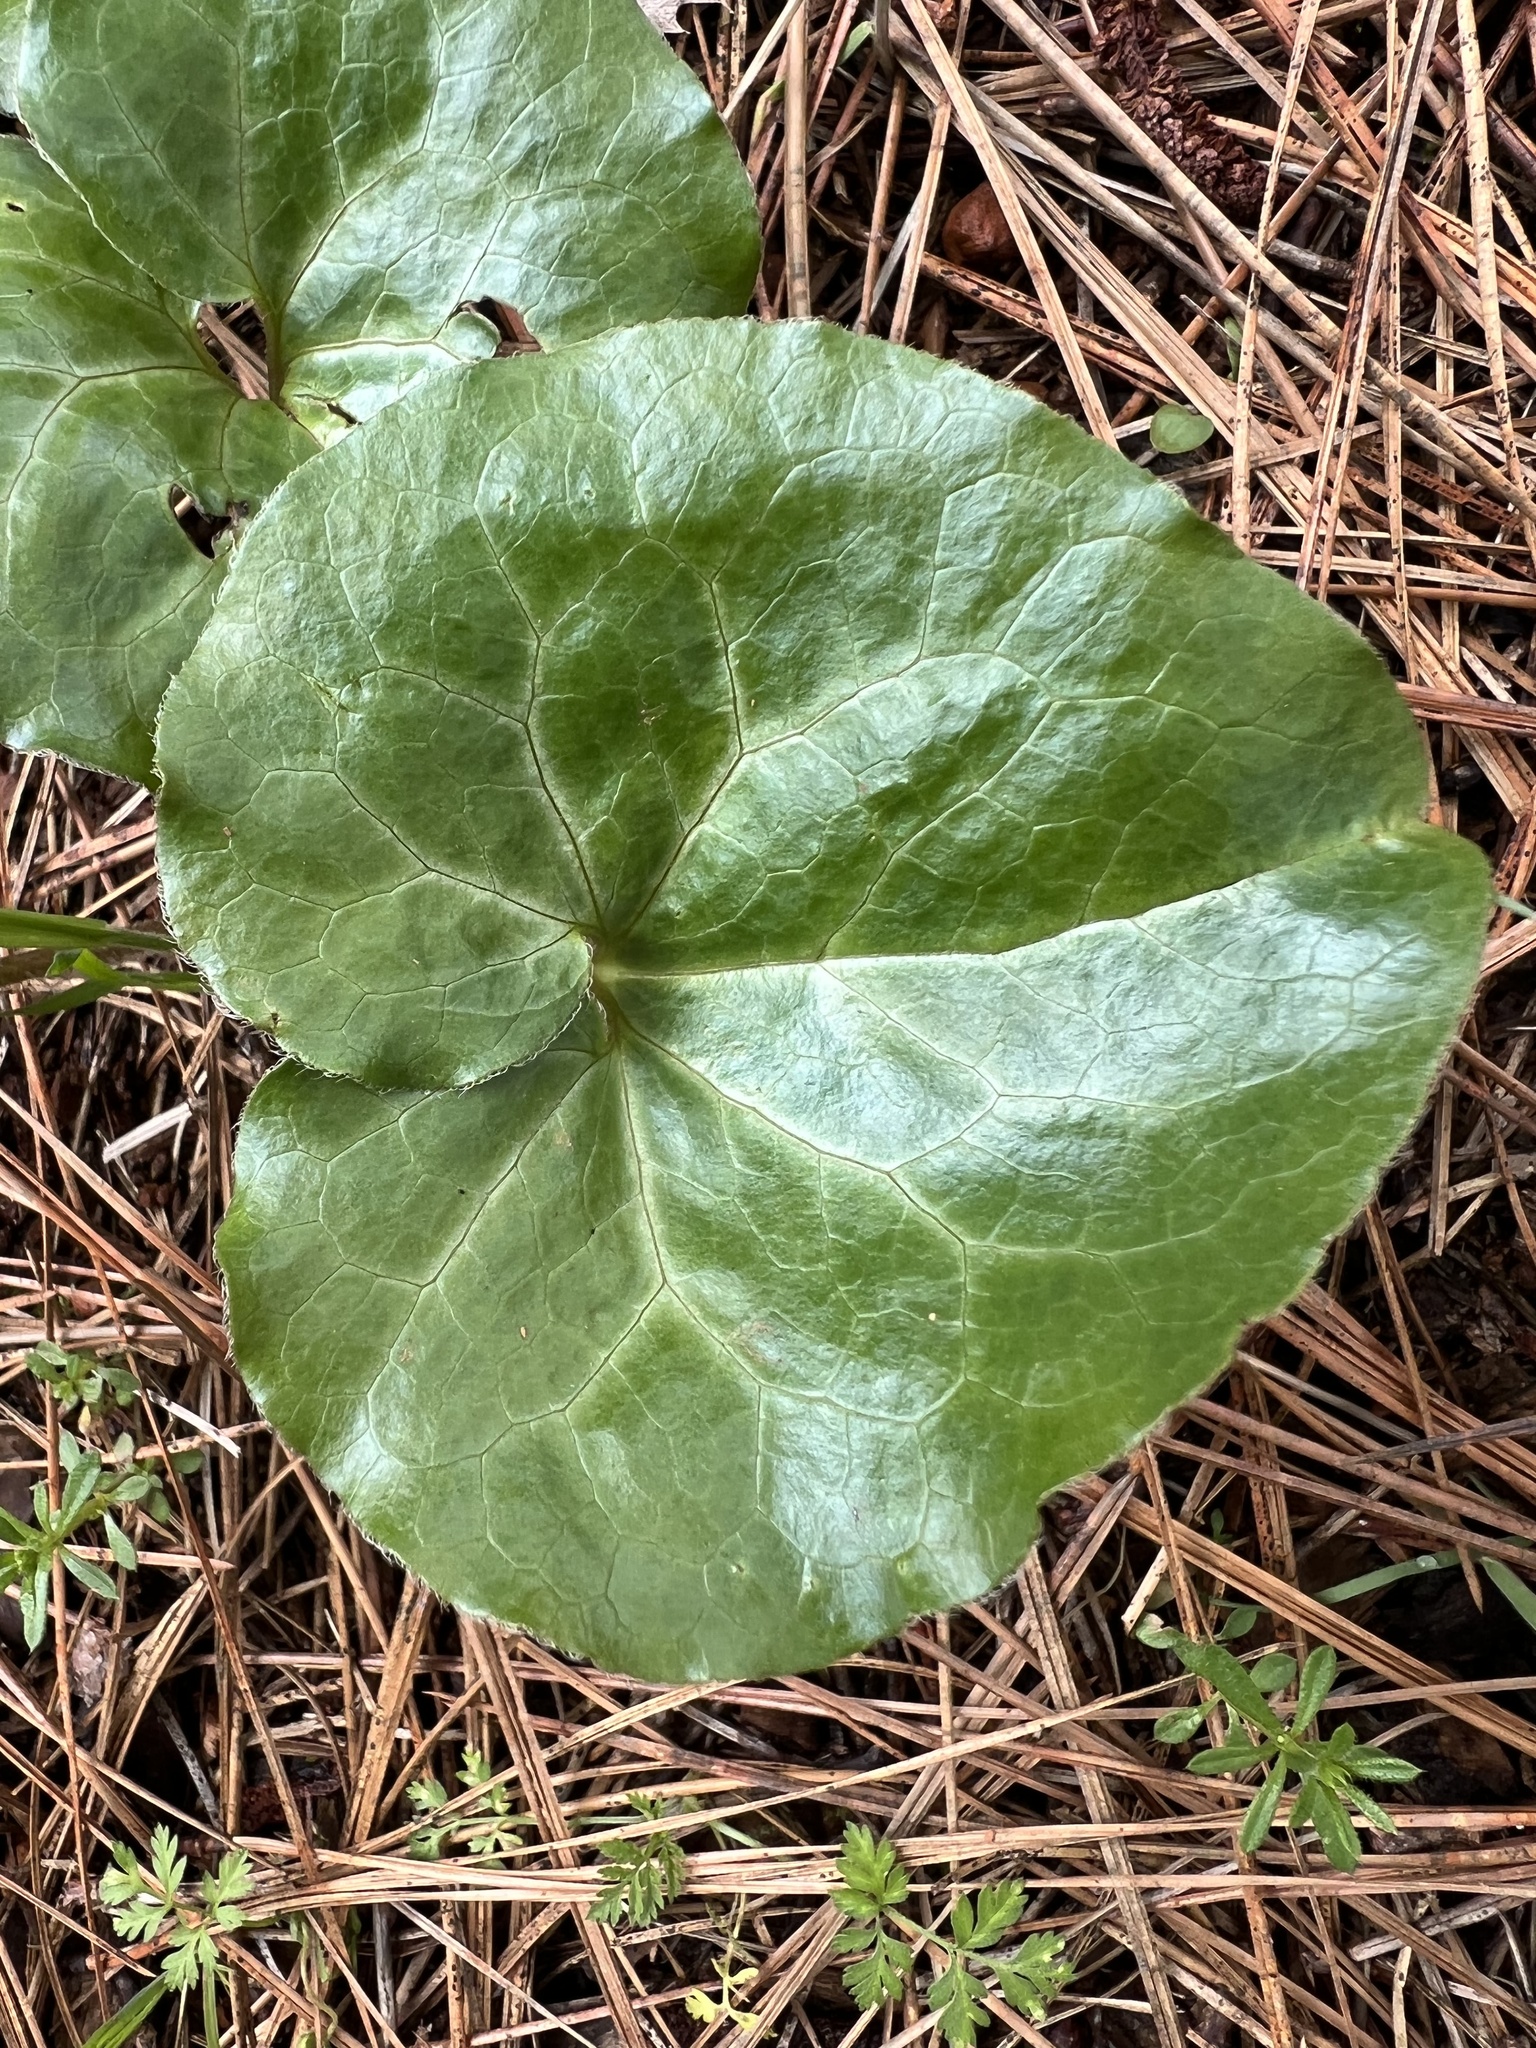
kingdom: Plantae
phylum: Tracheophyta
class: Magnoliopsida
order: Piperales
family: Aristolochiaceae
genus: Asarum
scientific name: Asarum hartwegii
